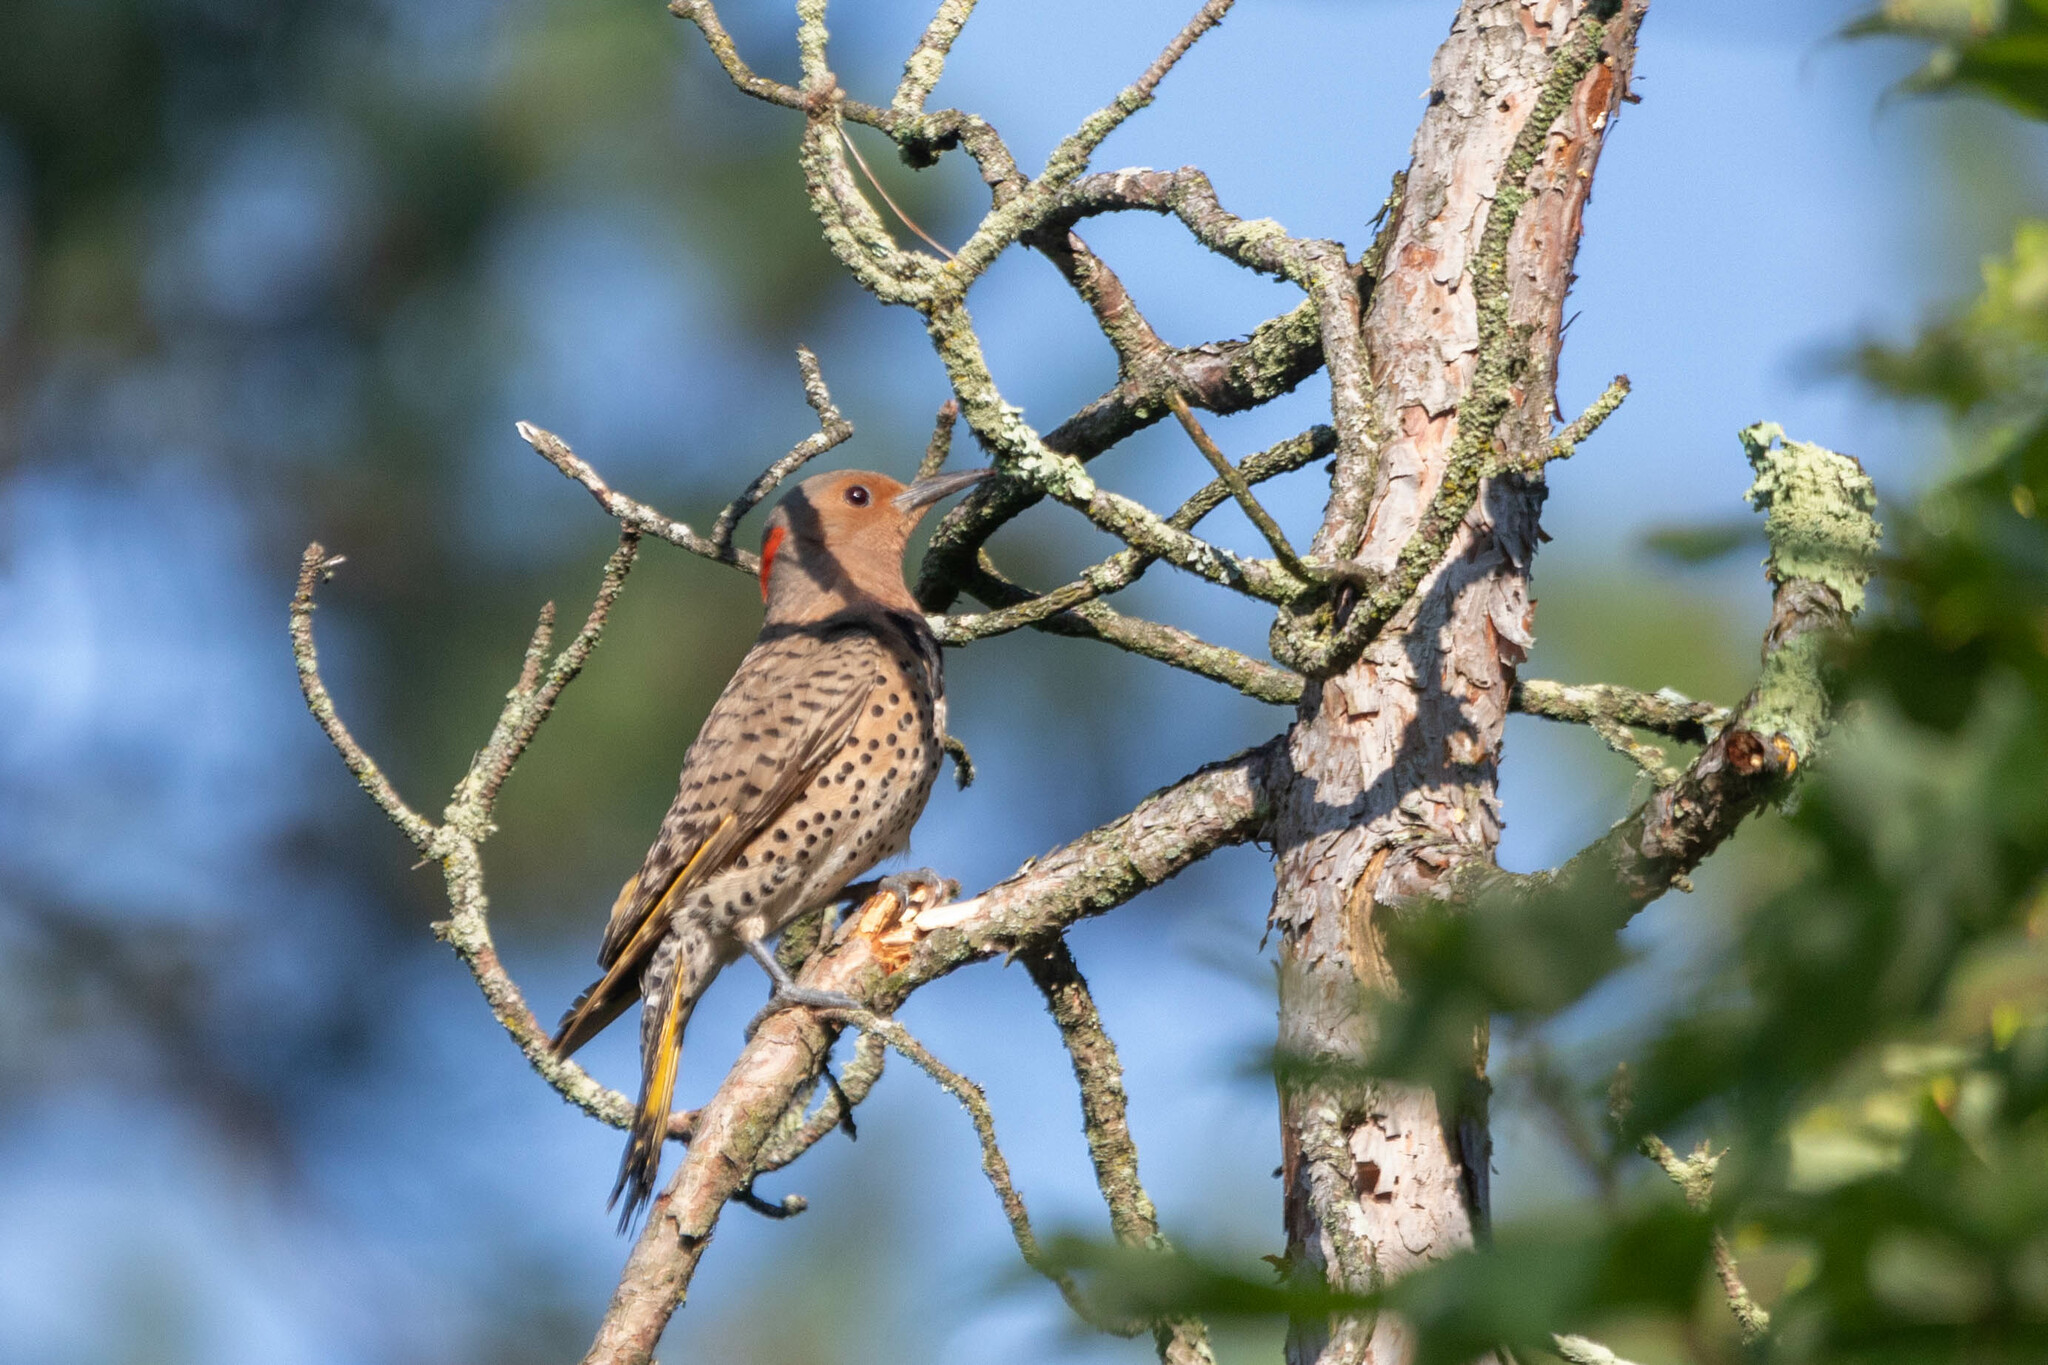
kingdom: Animalia
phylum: Chordata
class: Aves
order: Piciformes
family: Picidae
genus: Colaptes
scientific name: Colaptes auratus
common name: Northern flicker
